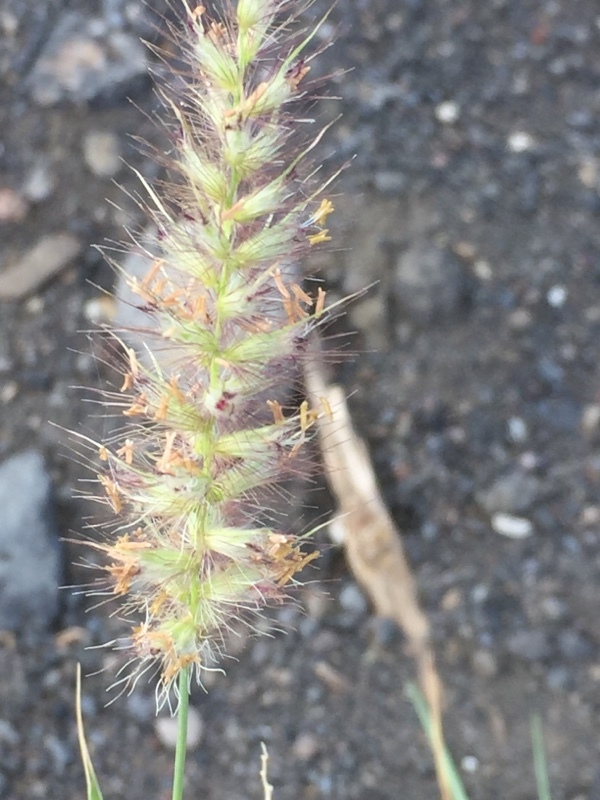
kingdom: Plantae
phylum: Tracheophyta
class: Liliopsida
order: Poales
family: Poaceae
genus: Cenchrus
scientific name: Cenchrus ciliaris
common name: Buffelgrass
